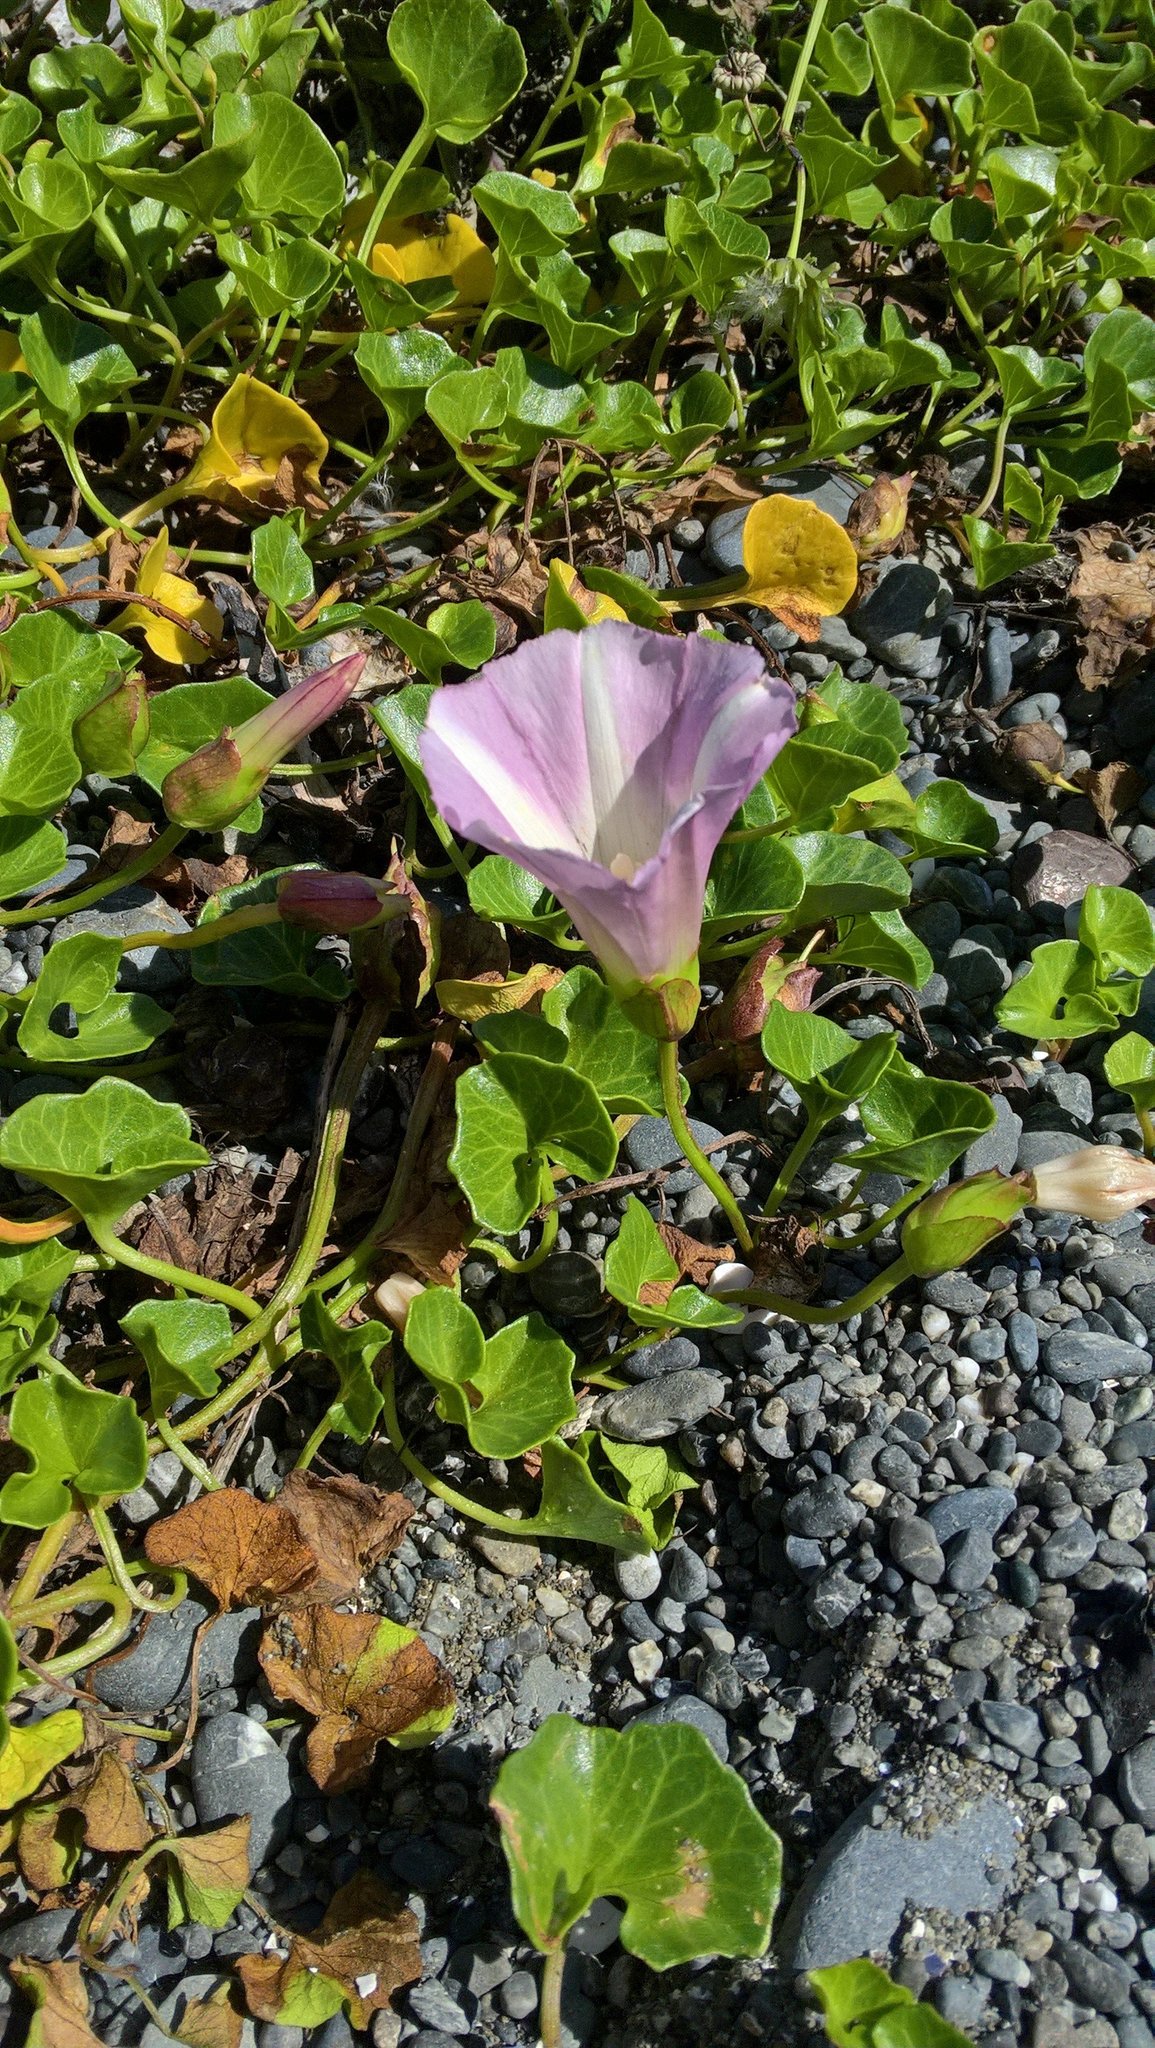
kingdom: Plantae
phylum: Tracheophyta
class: Magnoliopsida
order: Solanales
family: Convolvulaceae
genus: Calystegia
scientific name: Calystegia soldanella
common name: Sea bindweed
